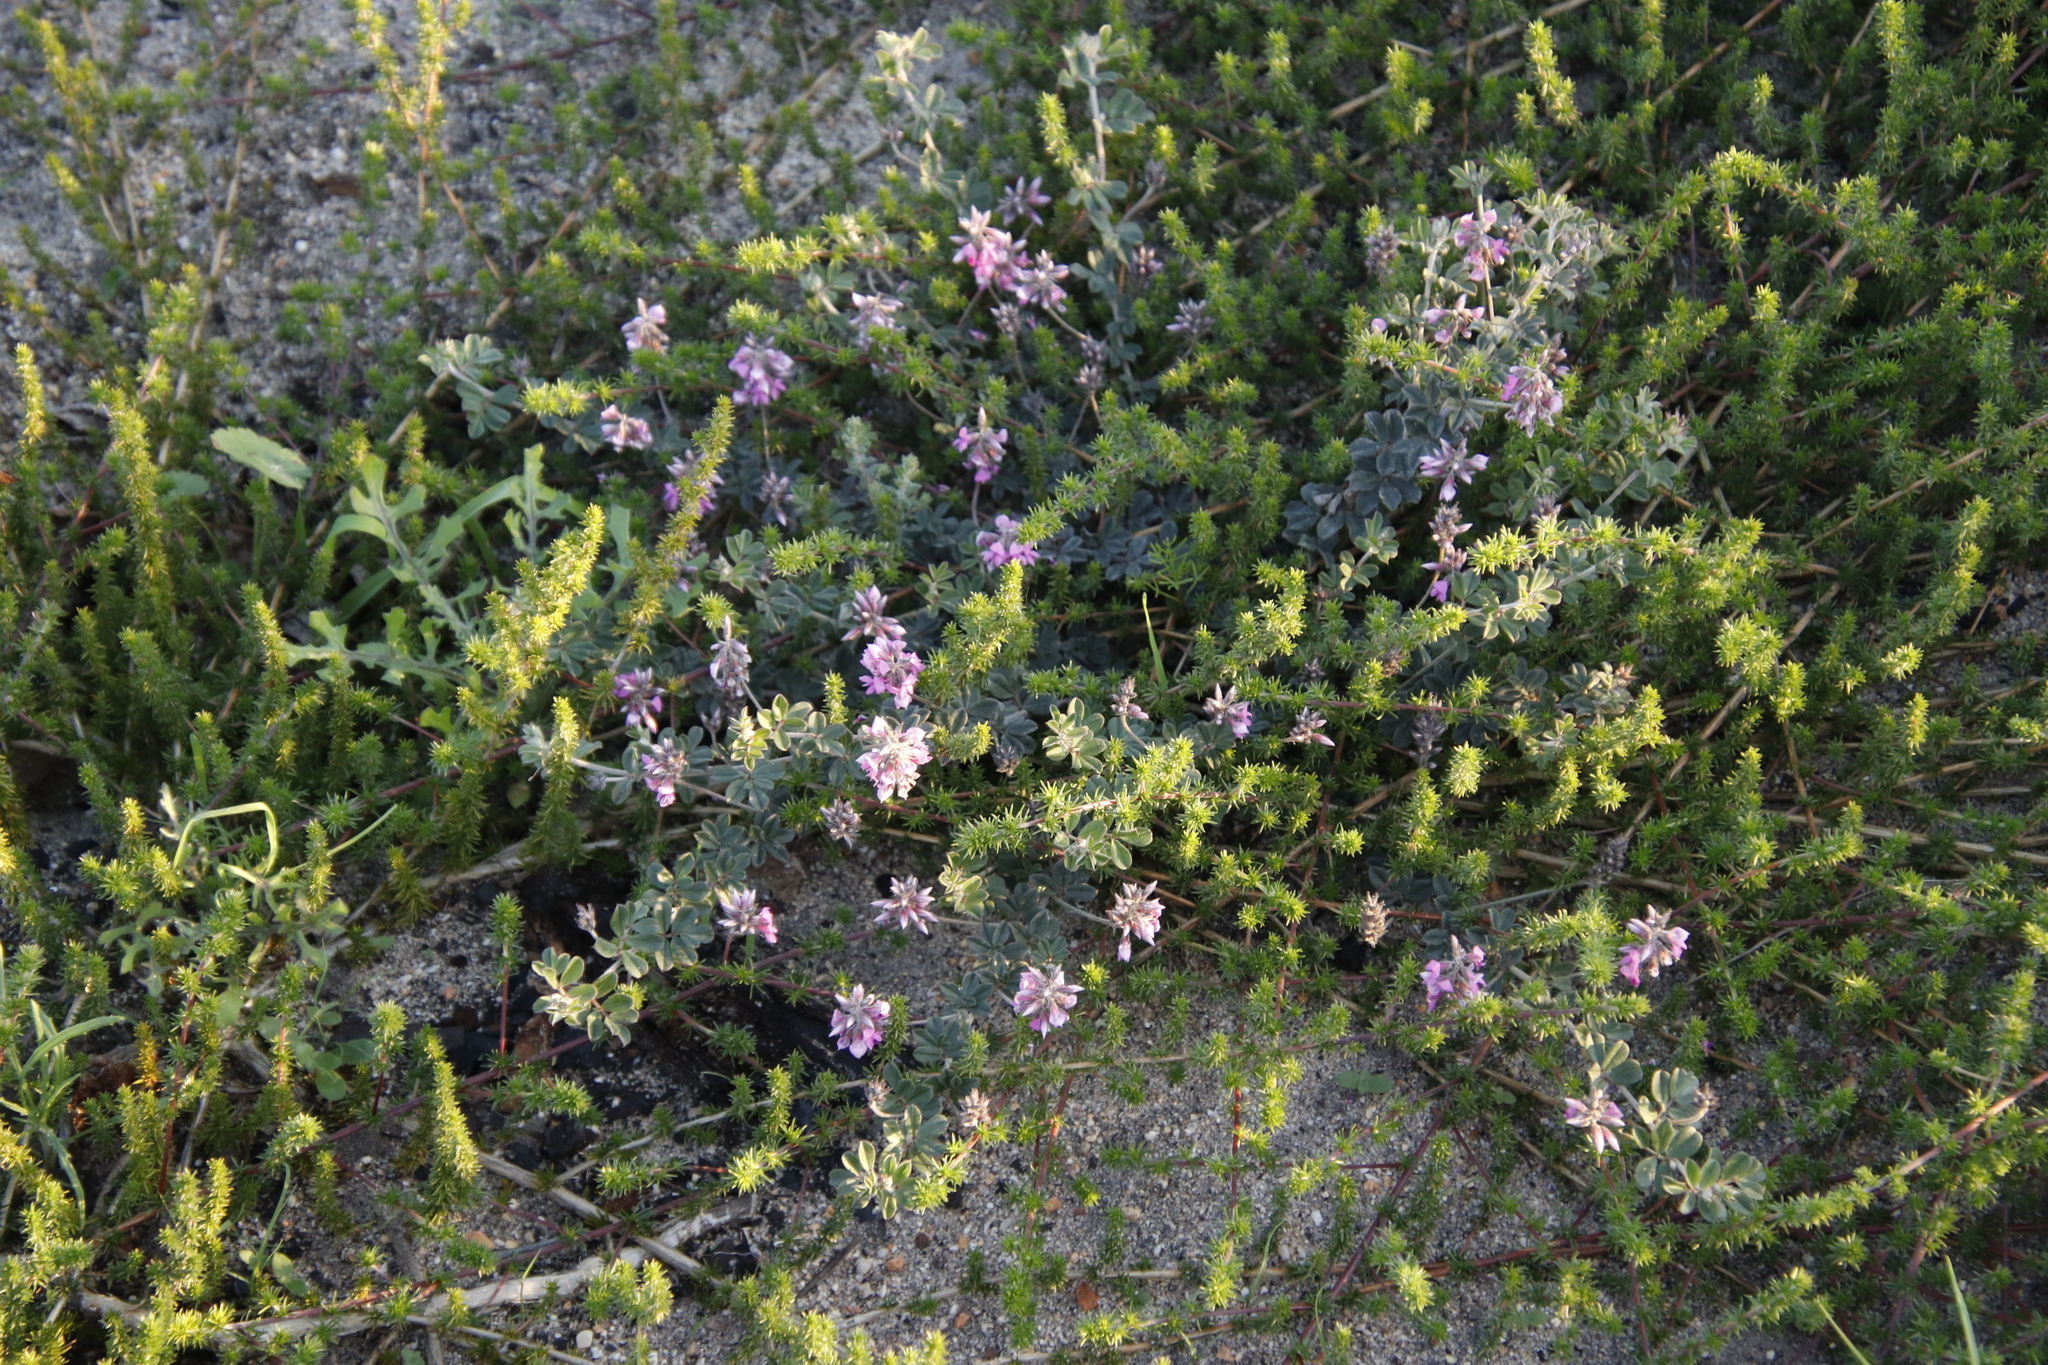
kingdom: Plantae
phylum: Tracheophyta
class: Magnoliopsida
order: Fabales
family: Fabaceae
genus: Indigofera
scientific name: Indigofera mauritanica
